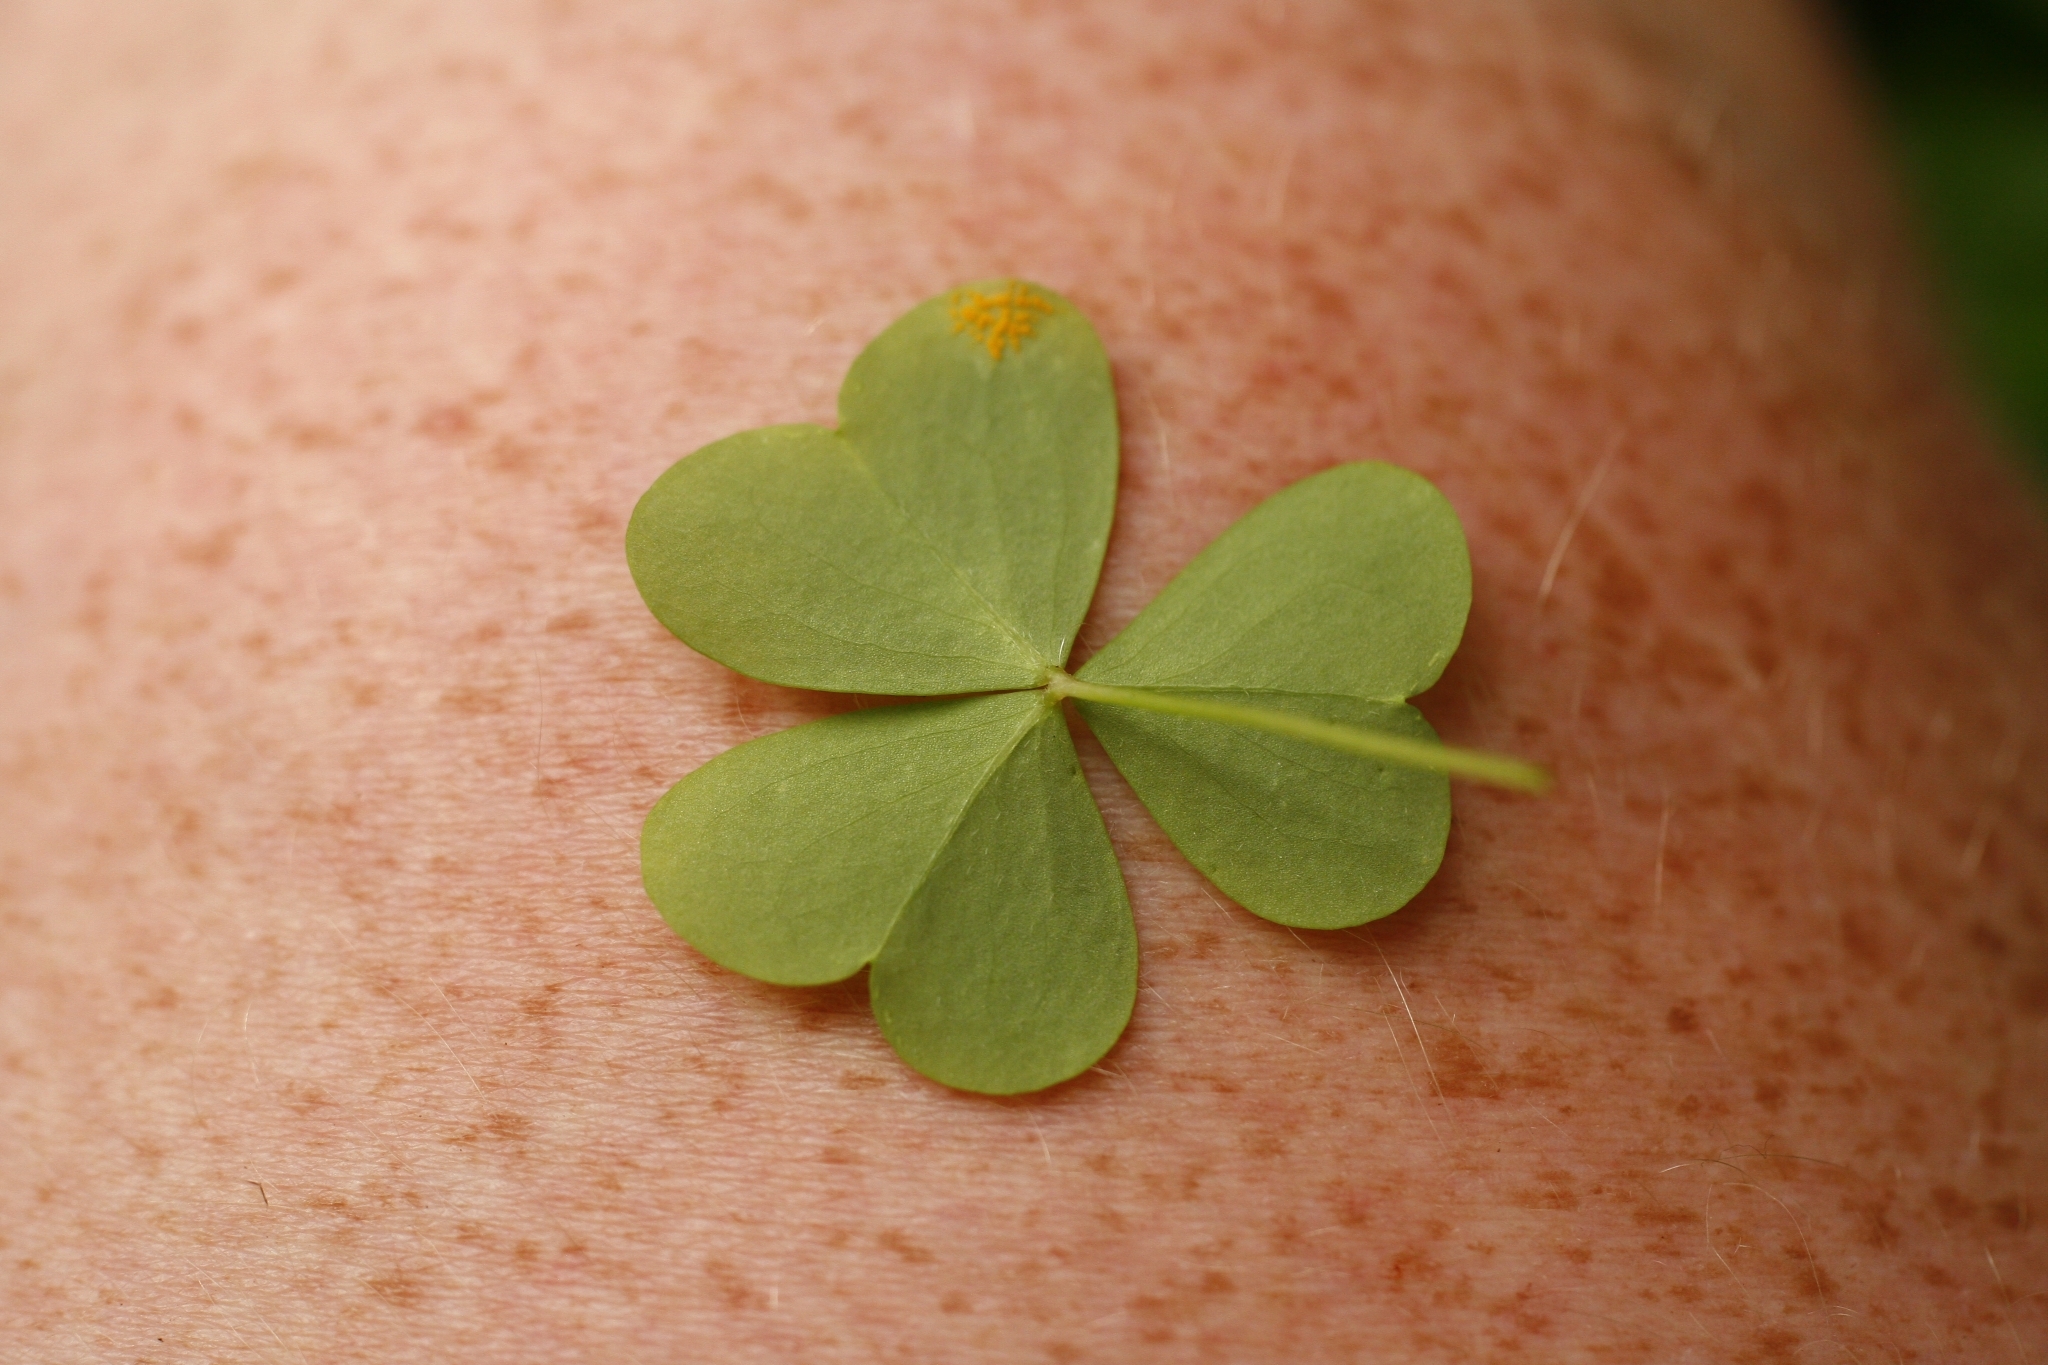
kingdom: Plantae
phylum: Tracheophyta
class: Magnoliopsida
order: Oxalidales
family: Oxalidaceae
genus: Oxalis
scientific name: Oxalis incarnata
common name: Pale pink-sorrel
